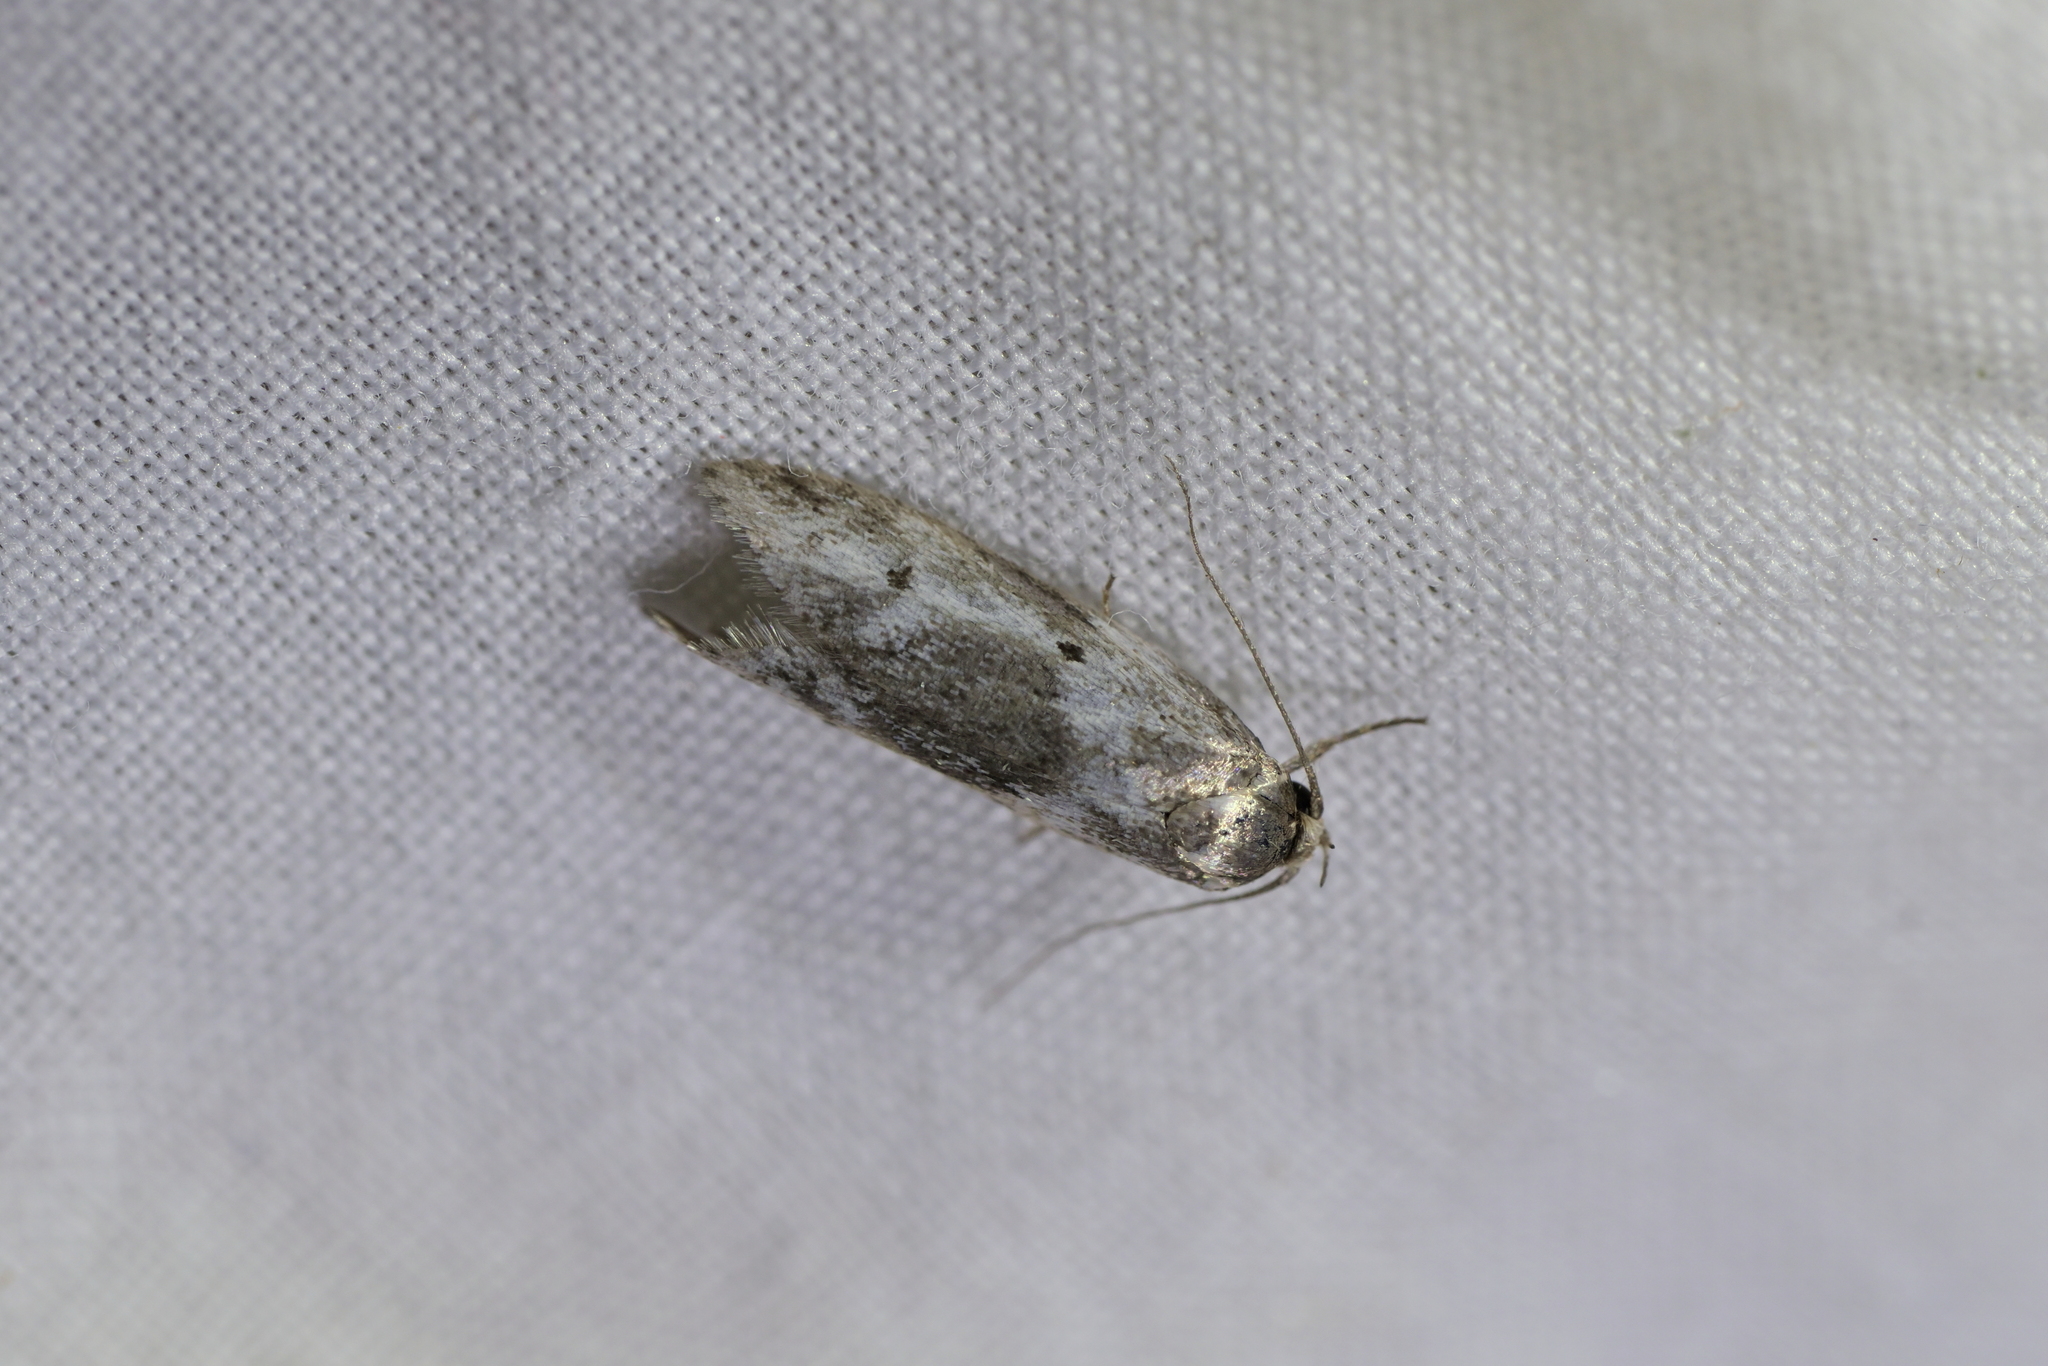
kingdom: Animalia
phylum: Arthropoda
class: Insecta
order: Lepidoptera
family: Oecophoridae
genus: Trachypepla
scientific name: Trachypepla indolescens
